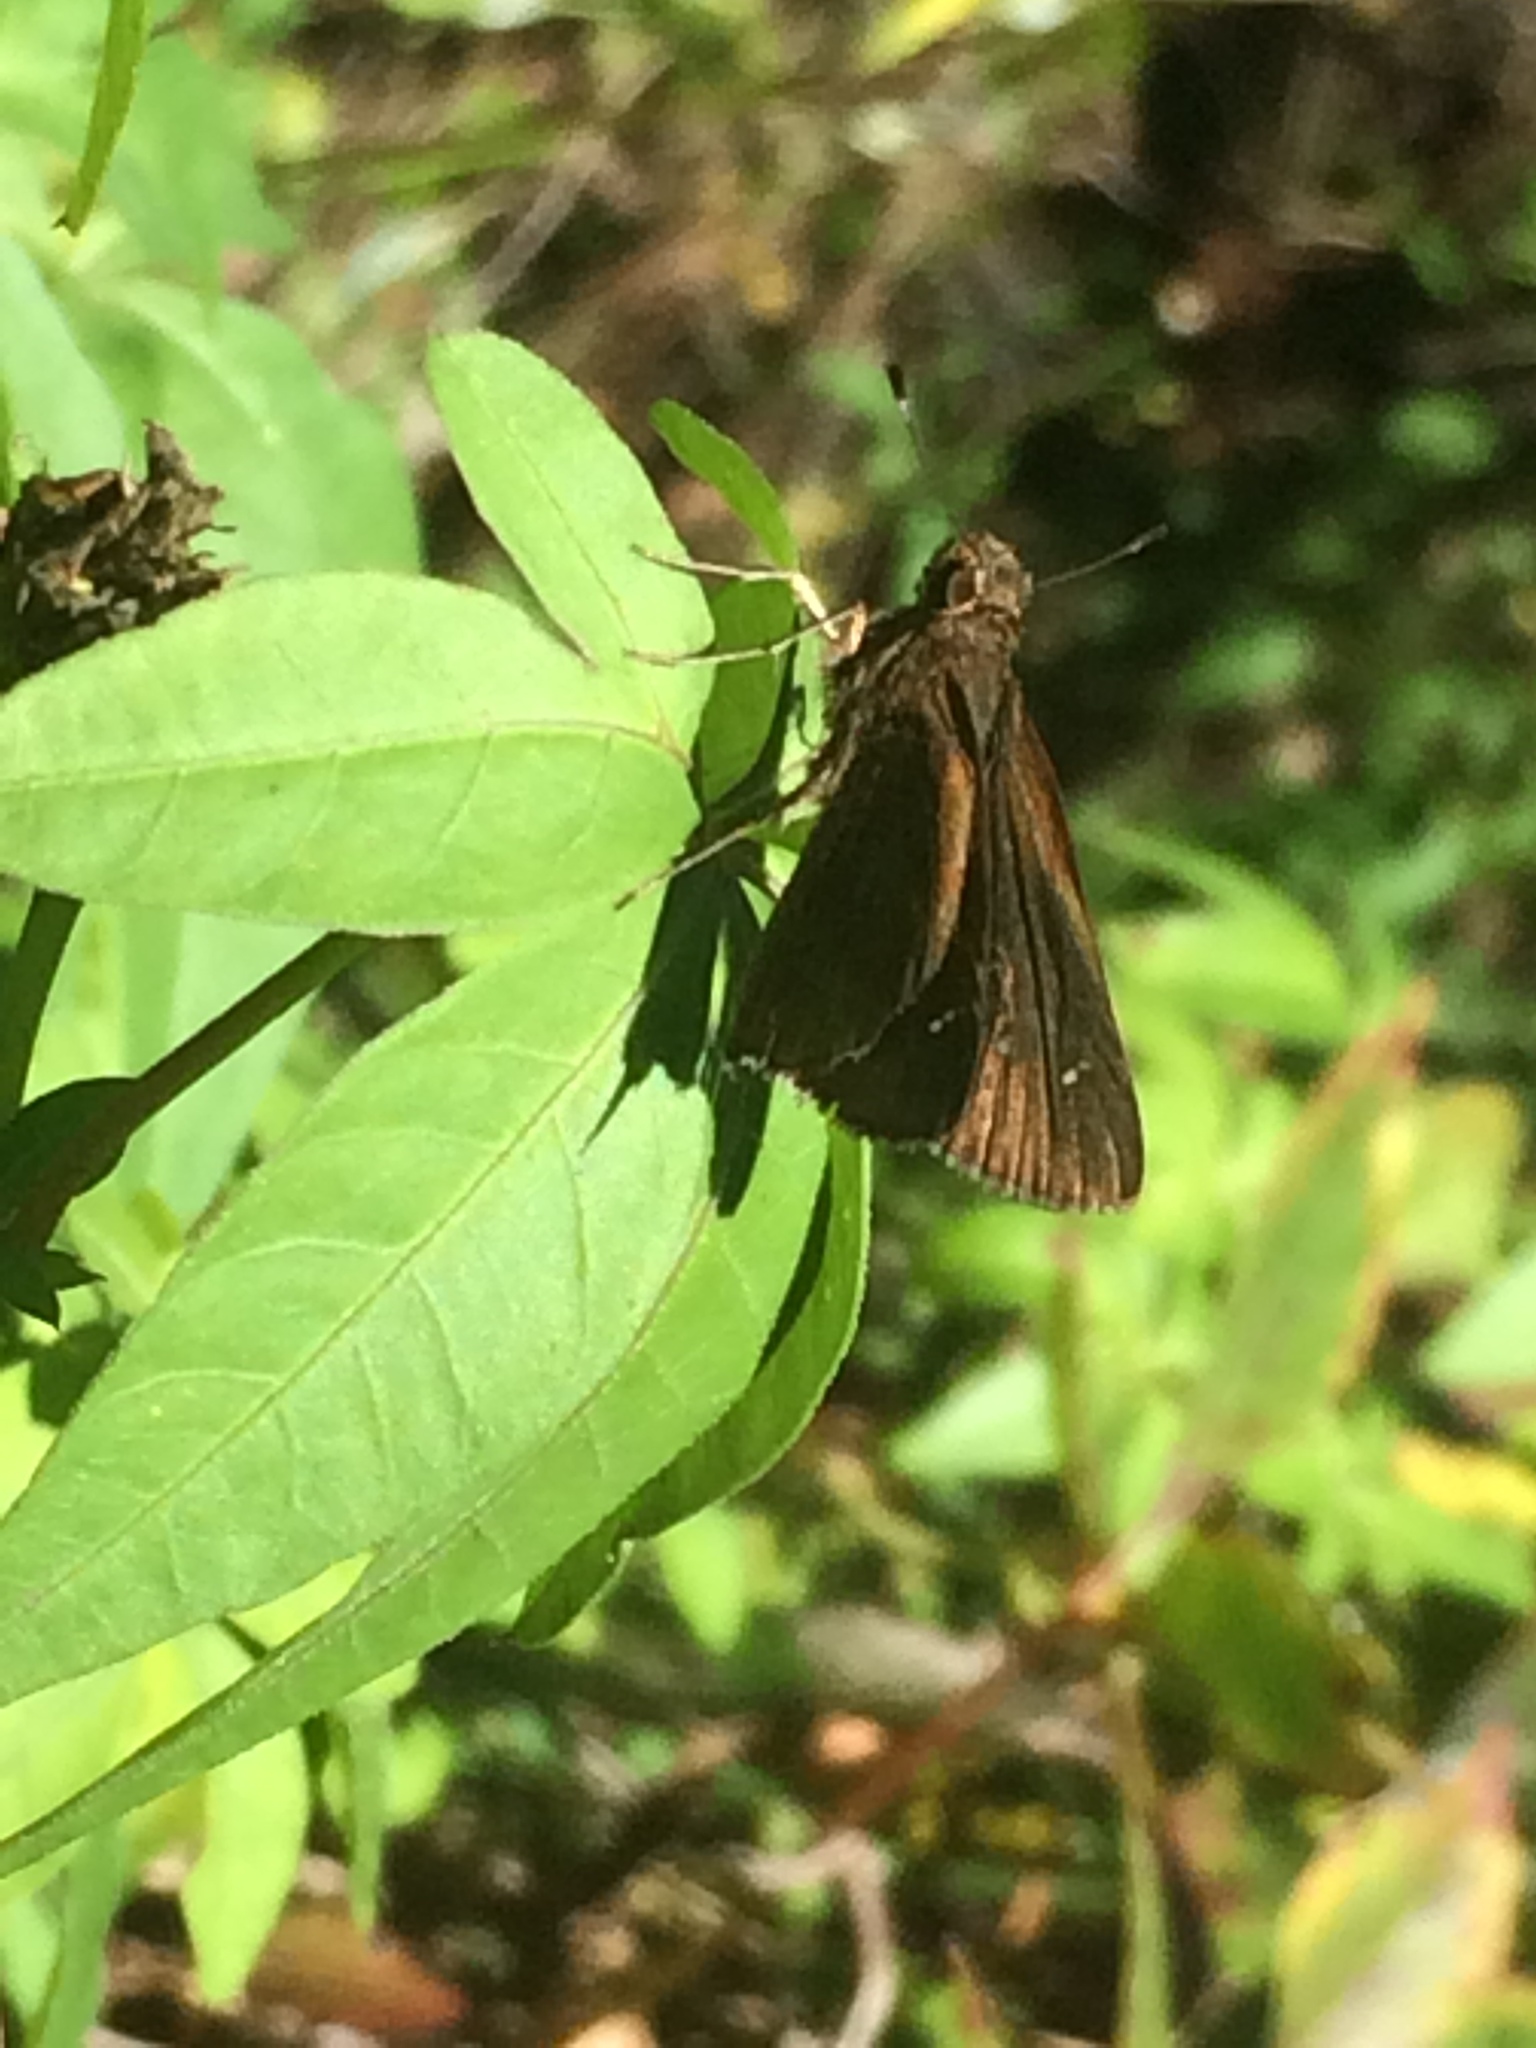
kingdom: Animalia
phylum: Arthropoda
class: Insecta
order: Lepidoptera
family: Hesperiidae
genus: Lerema
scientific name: Lerema accius
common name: Clouded skipper
